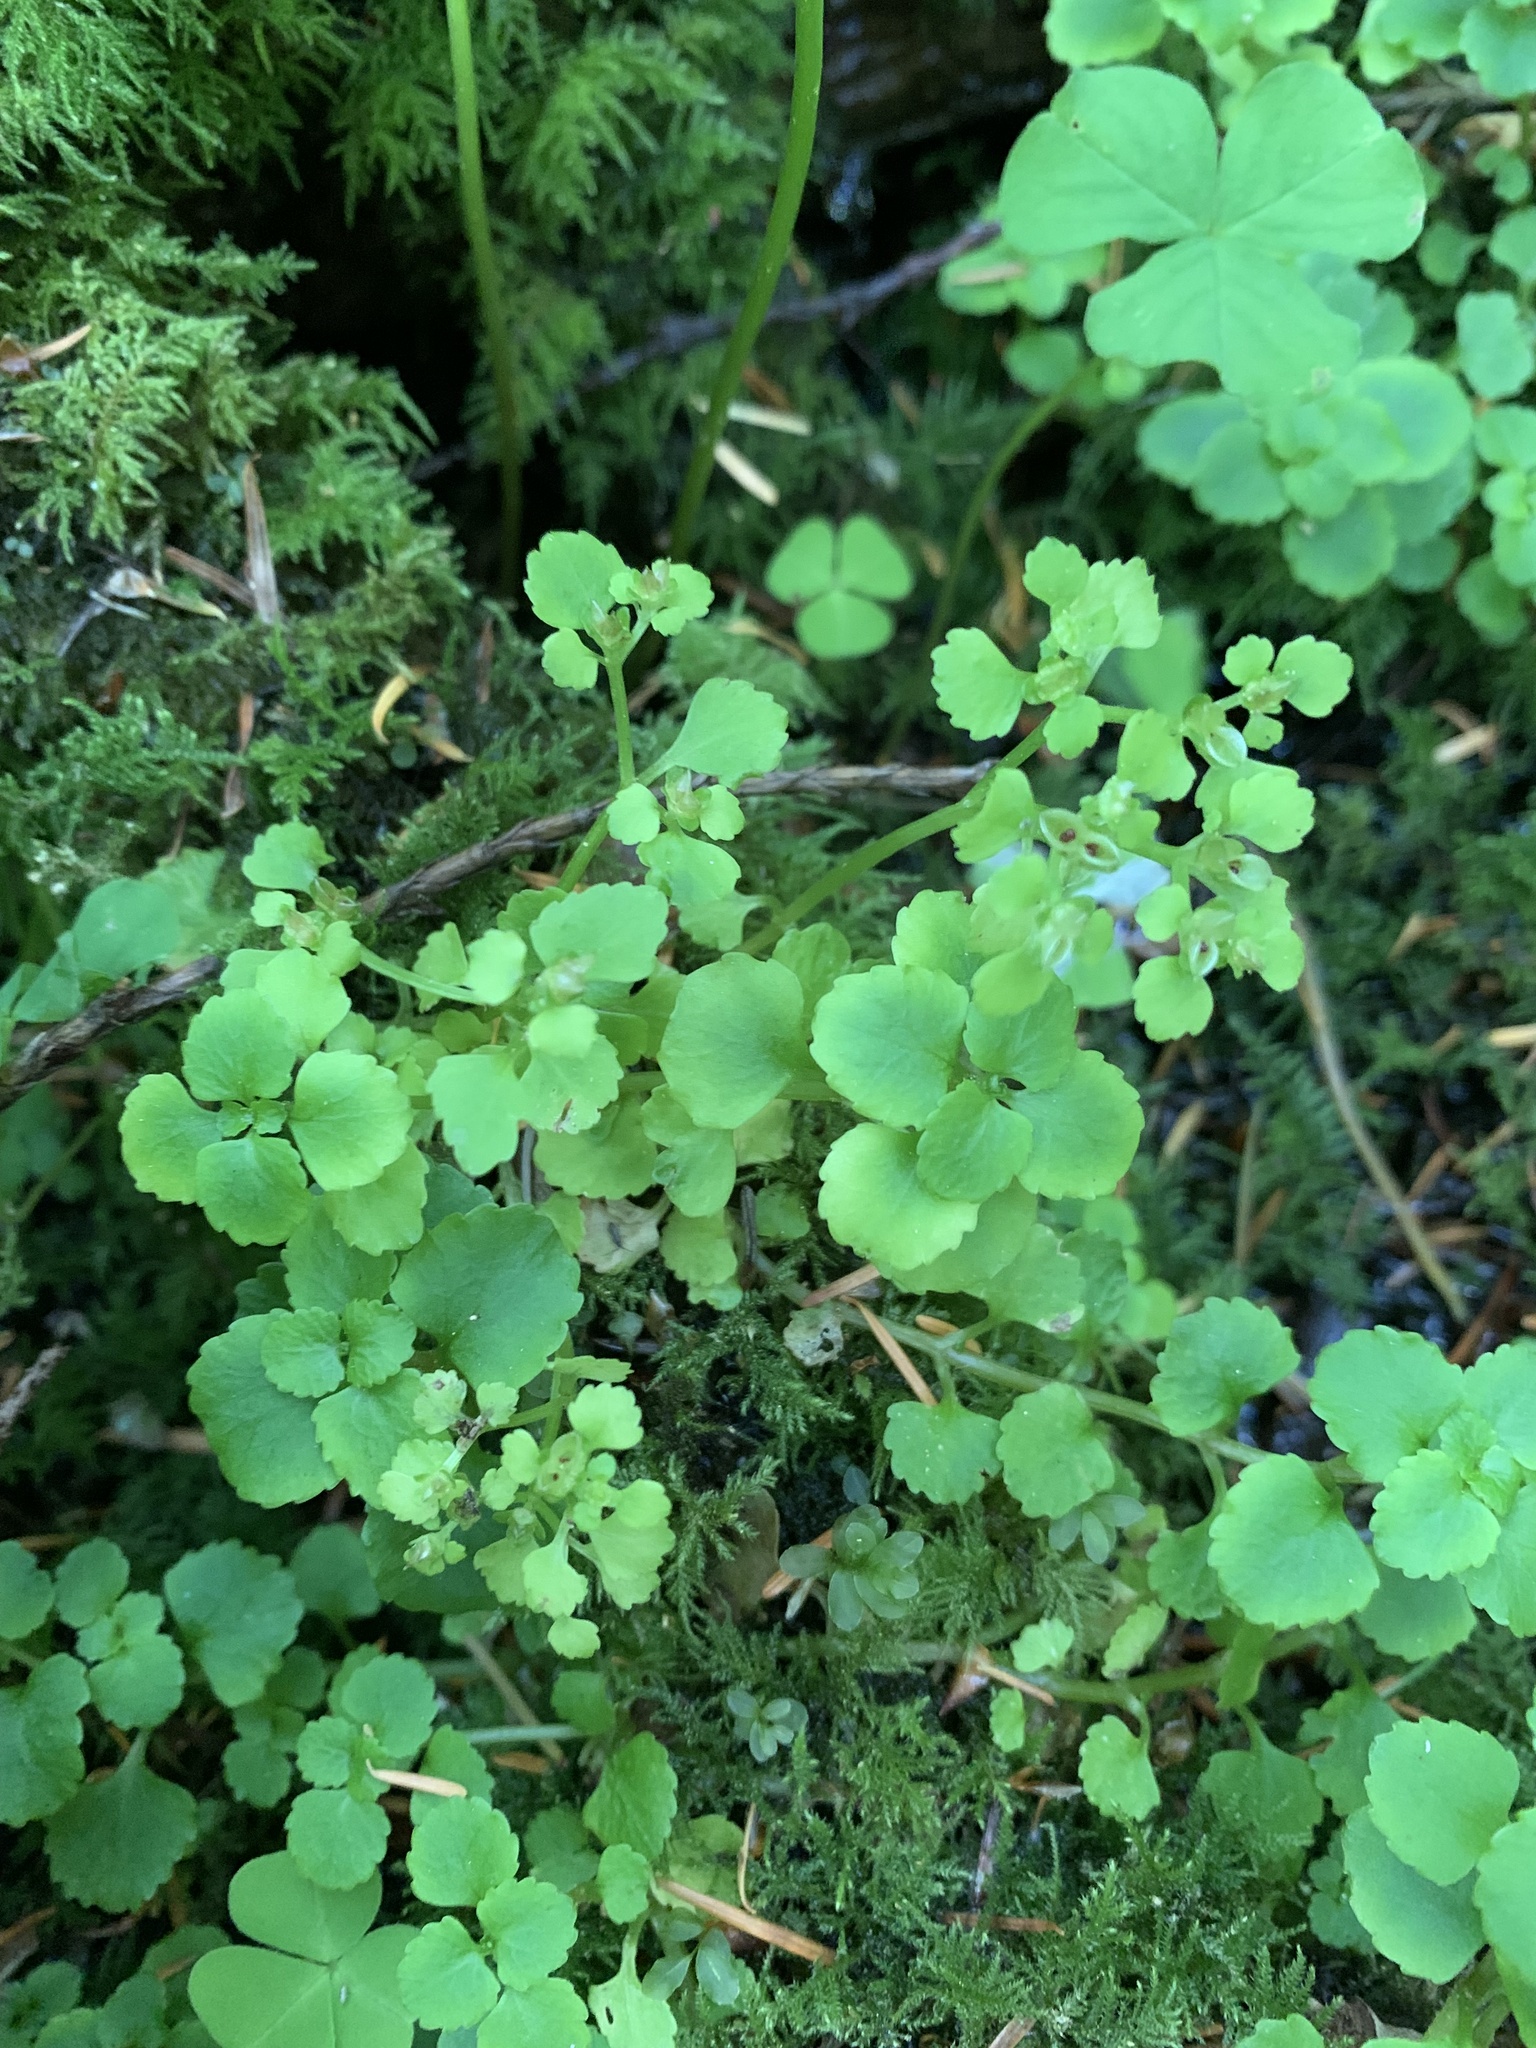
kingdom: Plantae
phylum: Tracheophyta
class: Magnoliopsida
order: Saxifragales
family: Saxifragaceae
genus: Chrysosplenium
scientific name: Chrysosplenium glechomifolium
